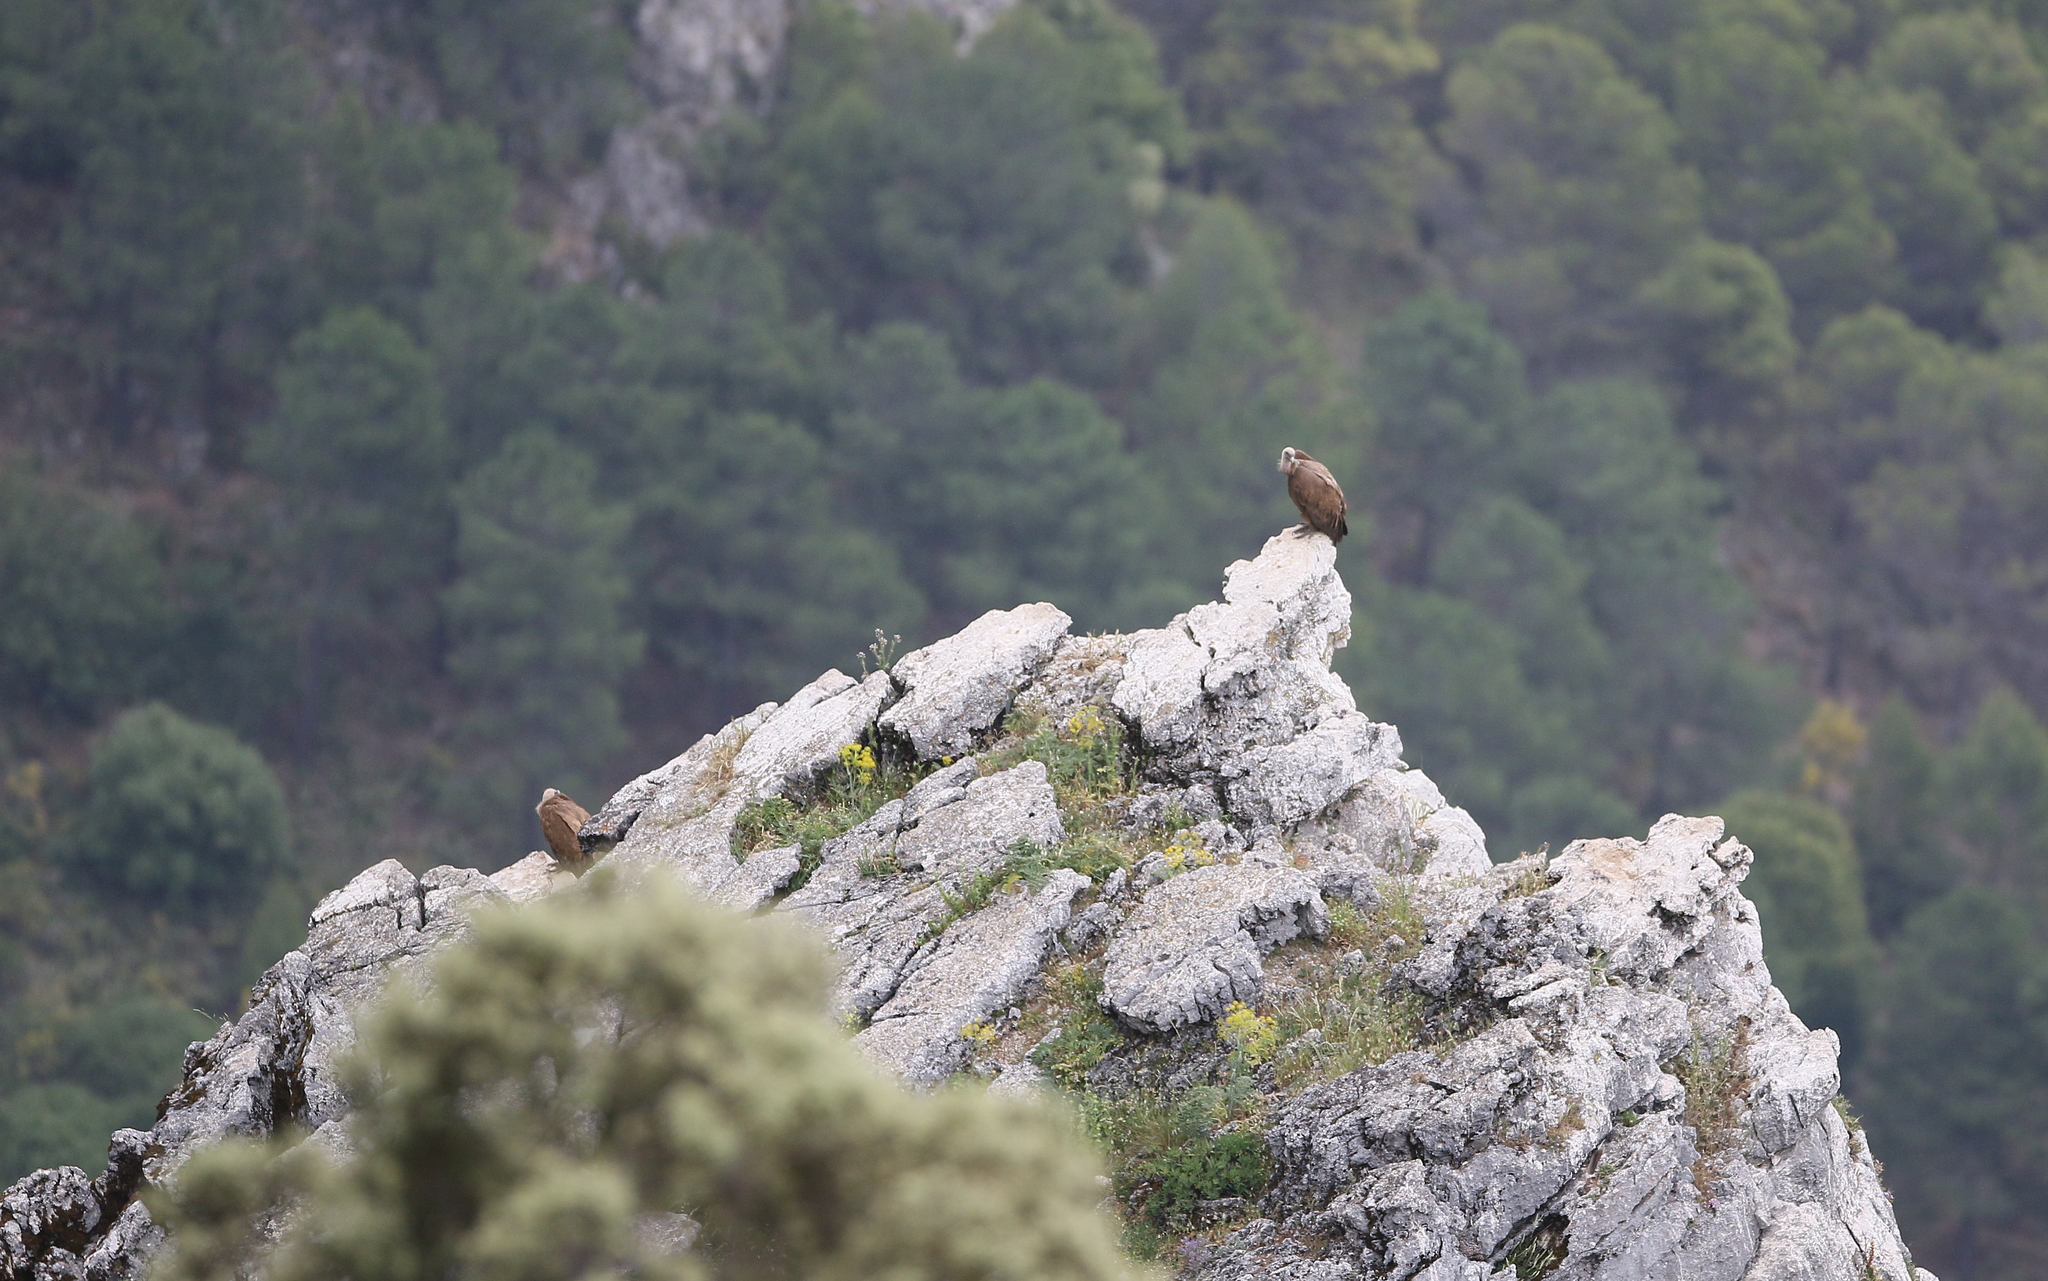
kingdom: Animalia
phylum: Chordata
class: Aves
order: Accipitriformes
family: Accipitridae
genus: Gyps
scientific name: Gyps fulvus
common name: Griffon vulture
